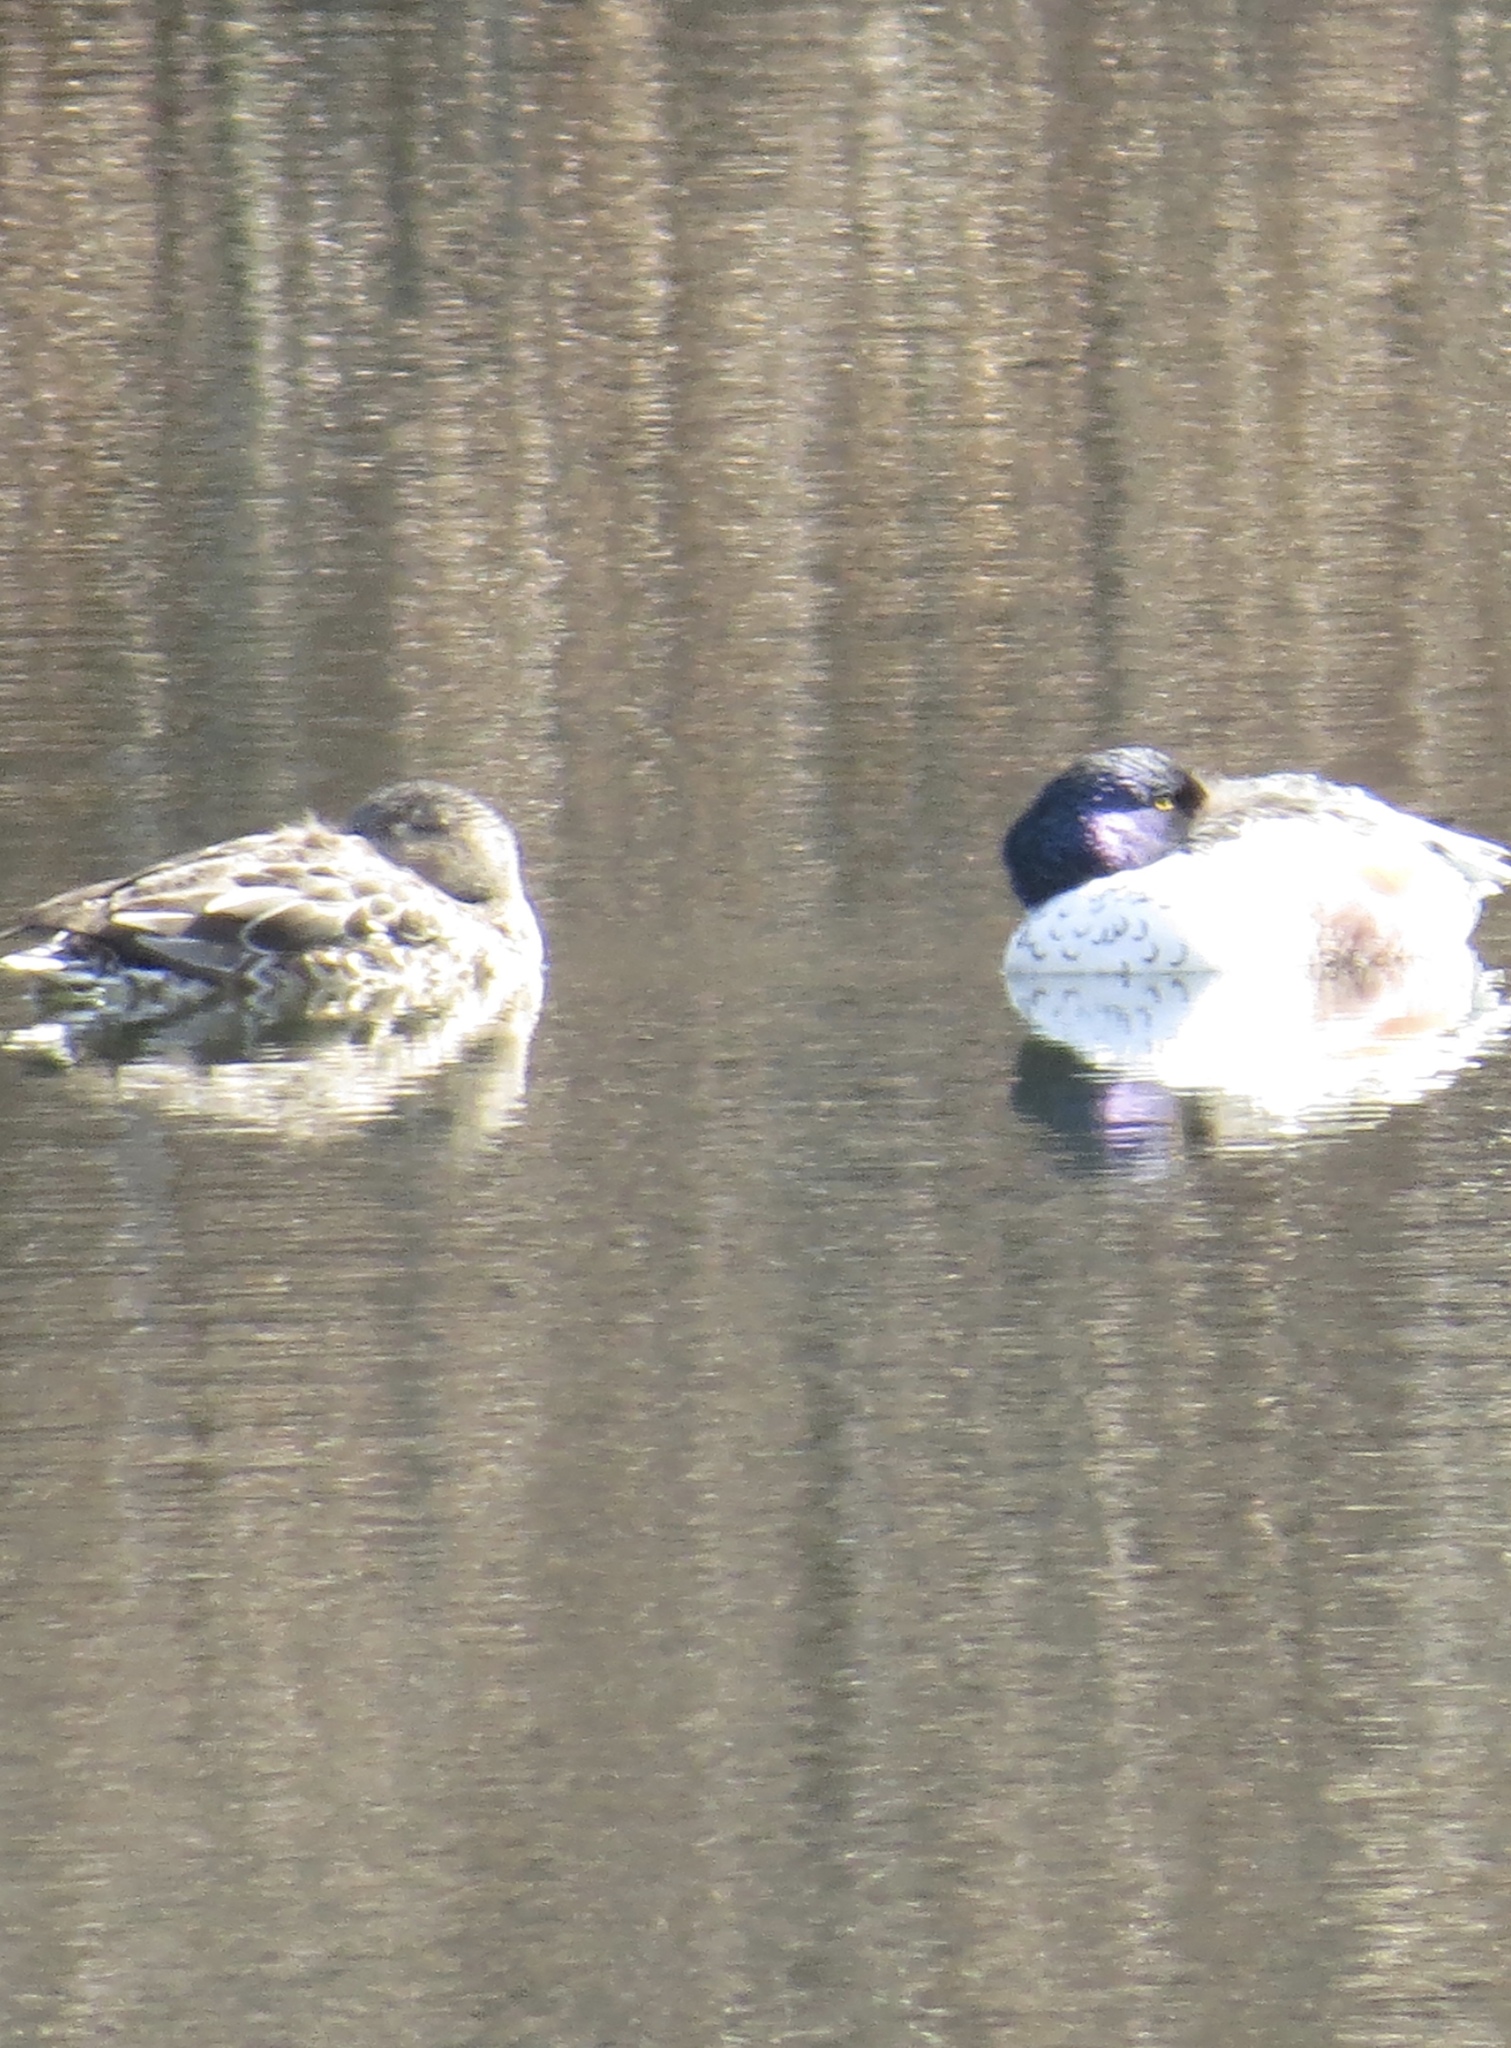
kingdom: Animalia
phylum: Chordata
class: Aves
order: Anseriformes
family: Anatidae
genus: Spatula
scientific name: Spatula clypeata
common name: Northern shoveler
